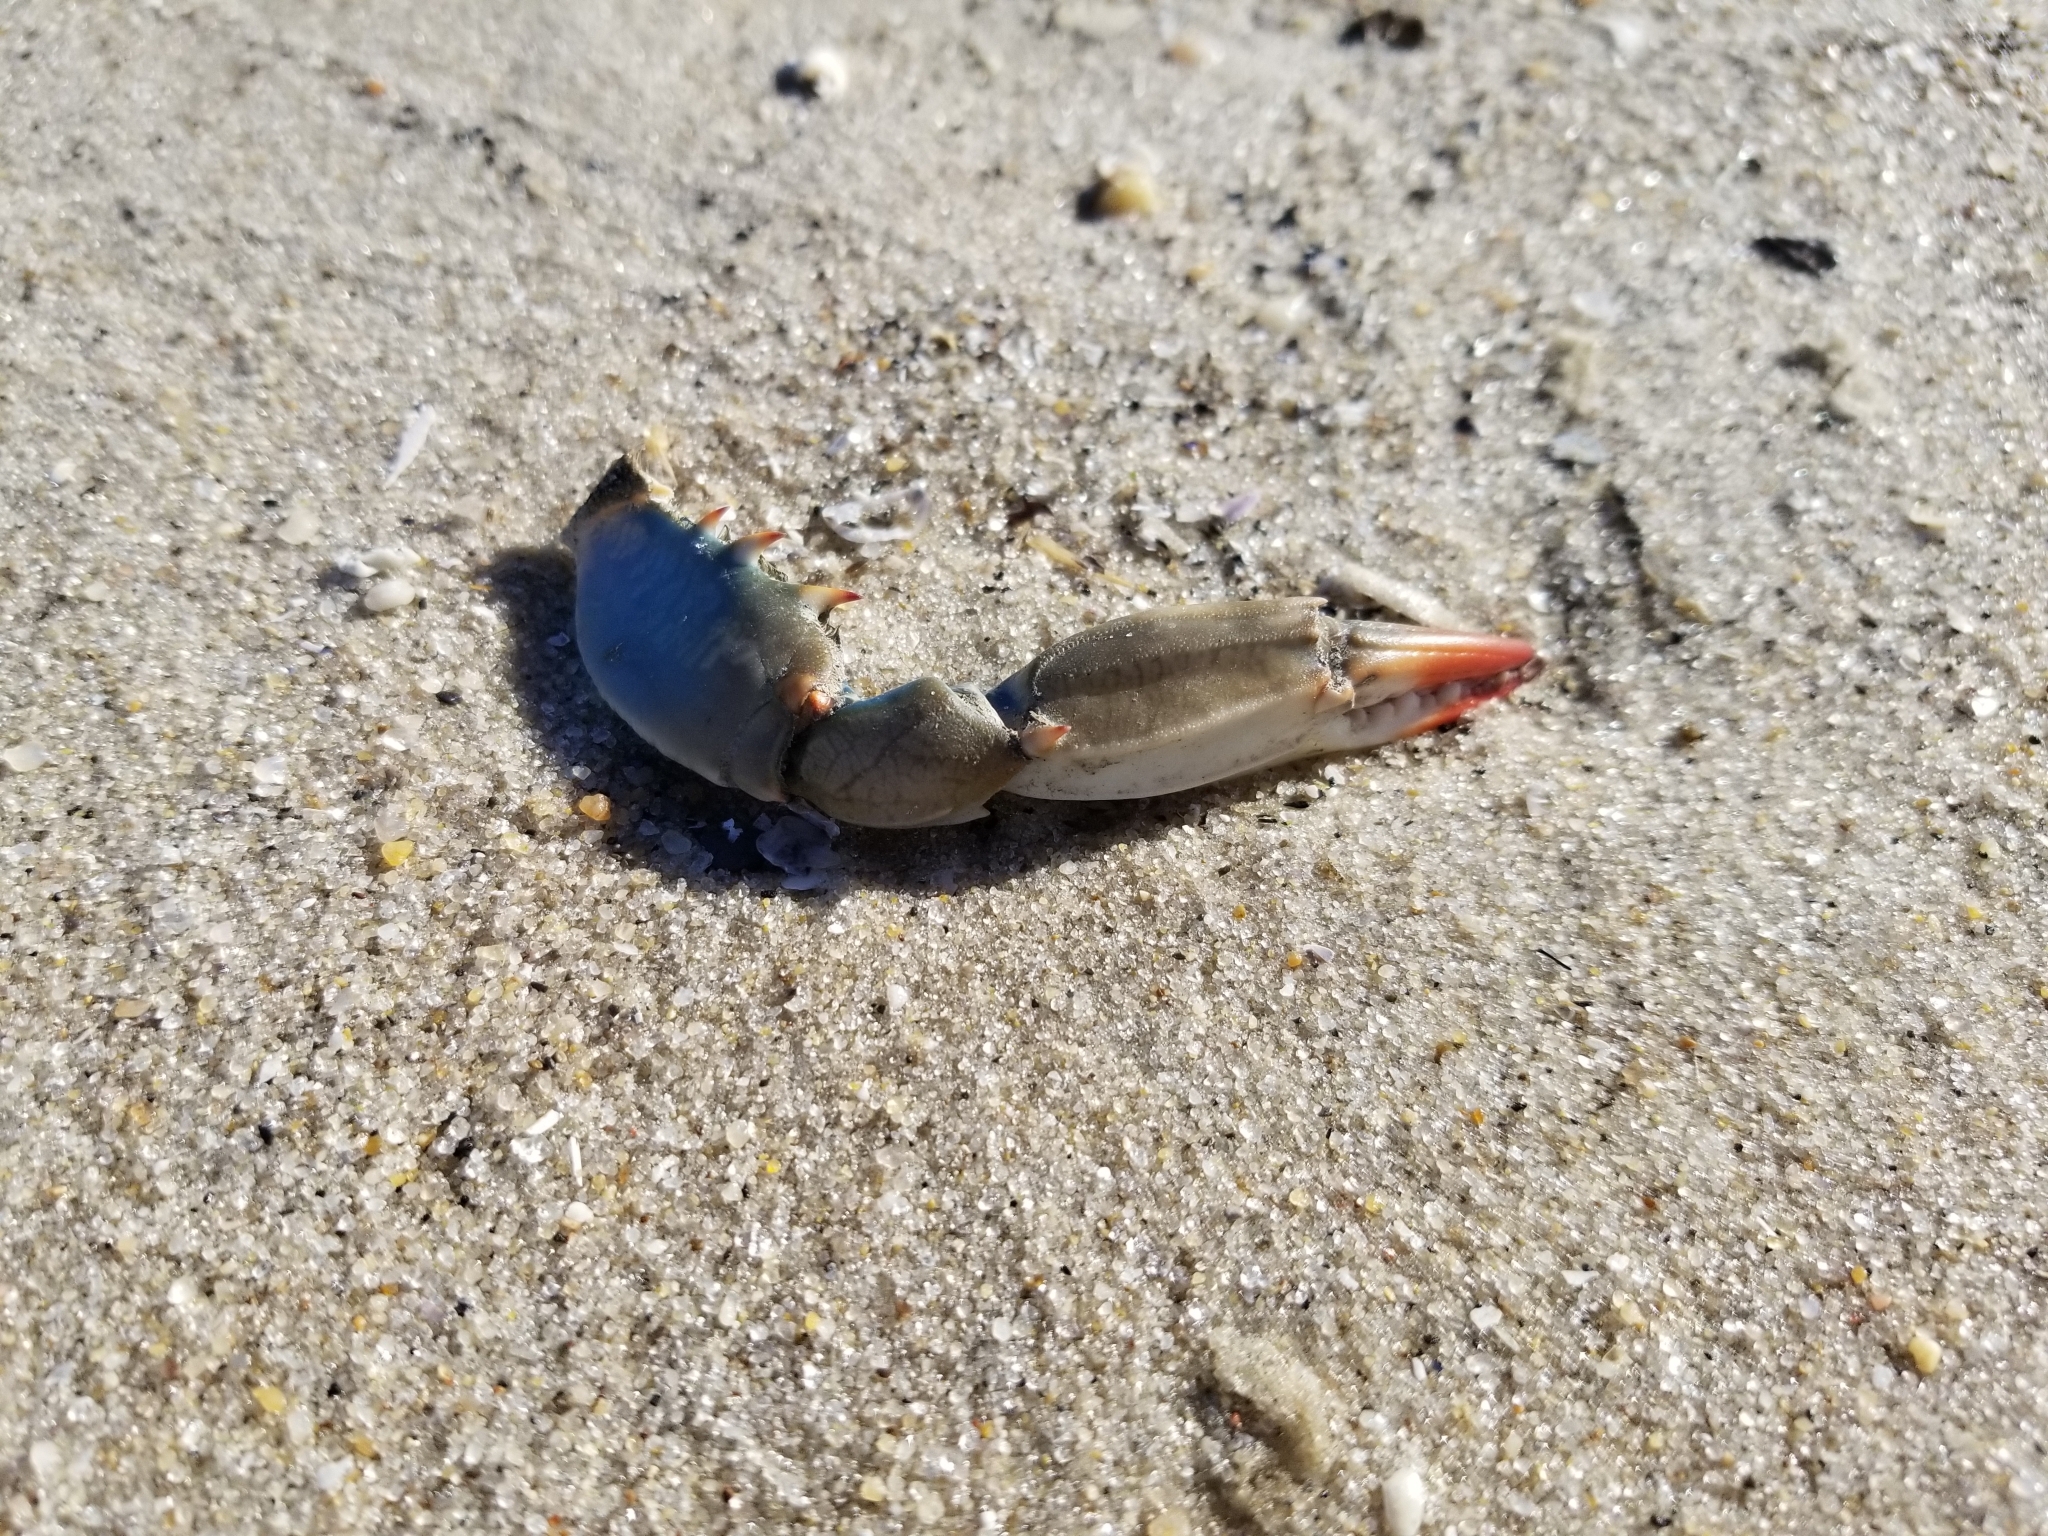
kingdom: Animalia
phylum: Arthropoda
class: Malacostraca
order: Decapoda
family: Portunidae
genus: Callinectes
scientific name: Callinectes sapidus
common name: Blue crab
